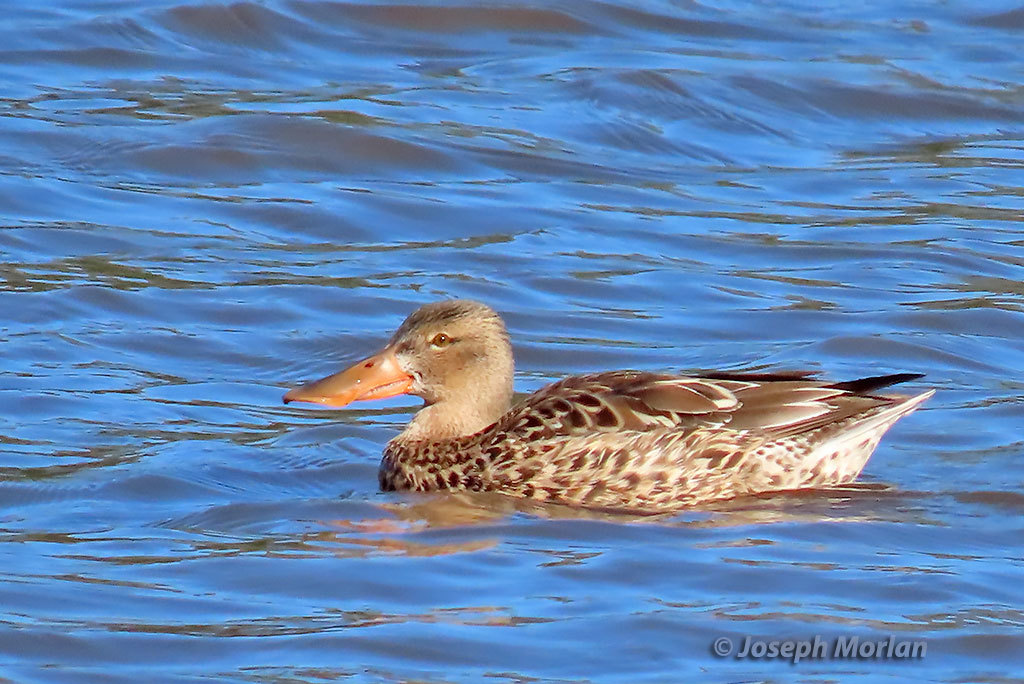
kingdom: Animalia
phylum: Chordata
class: Aves
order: Anseriformes
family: Anatidae
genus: Spatula
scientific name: Spatula clypeata
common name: Northern shoveler
